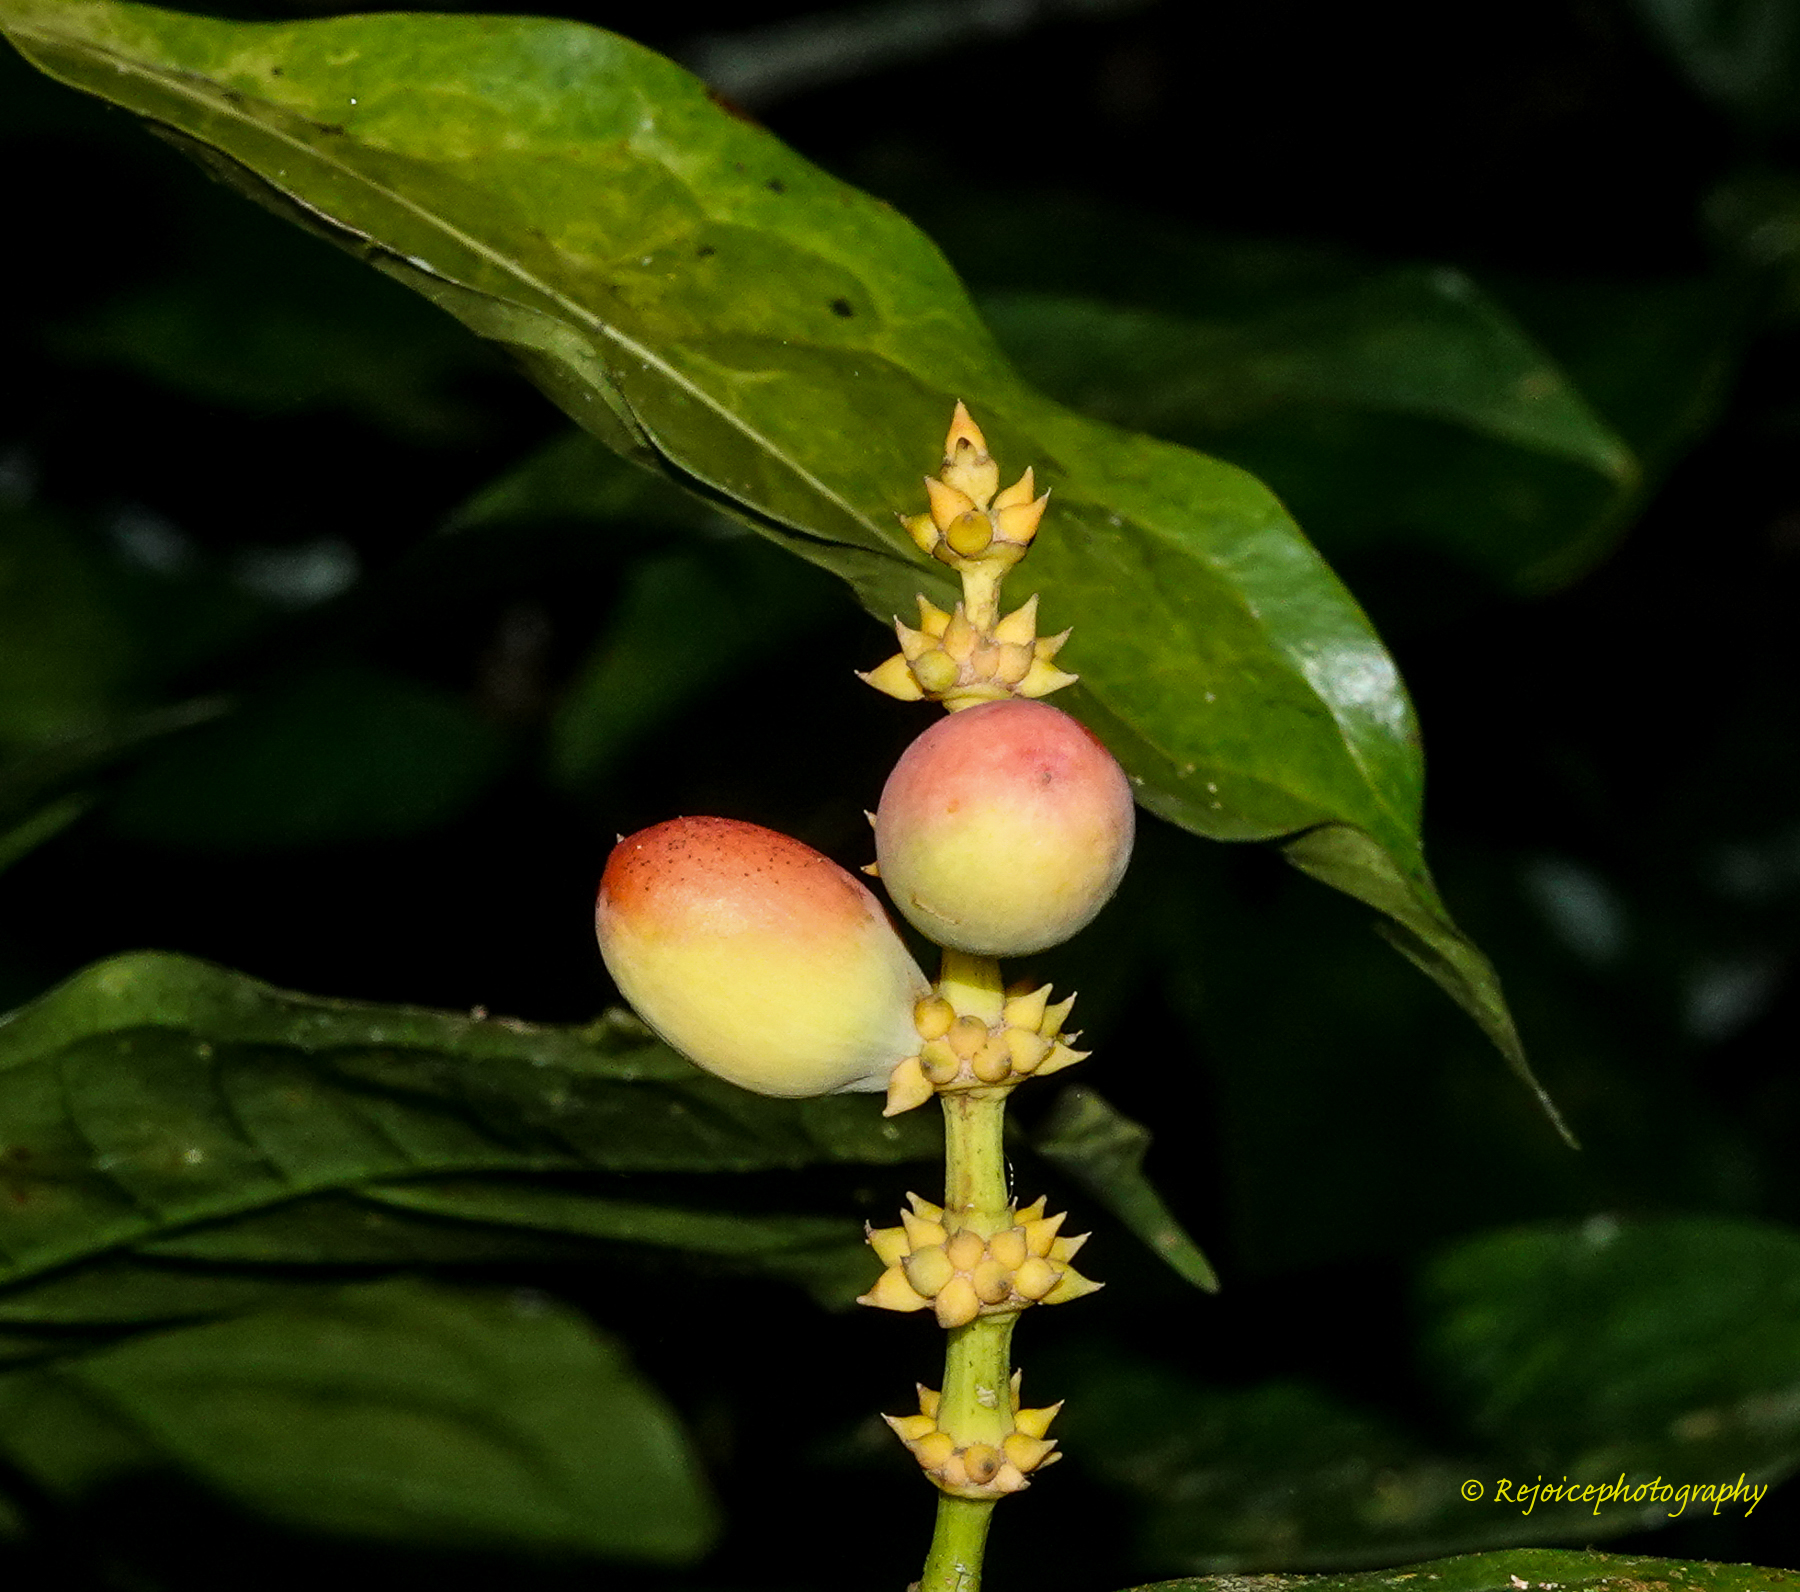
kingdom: Plantae
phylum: Tracheophyta
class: Gnetopsida
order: Gnetales
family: Gnetaceae
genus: Gnetum
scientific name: Gnetum gnemon
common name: Spanish joint-fir
